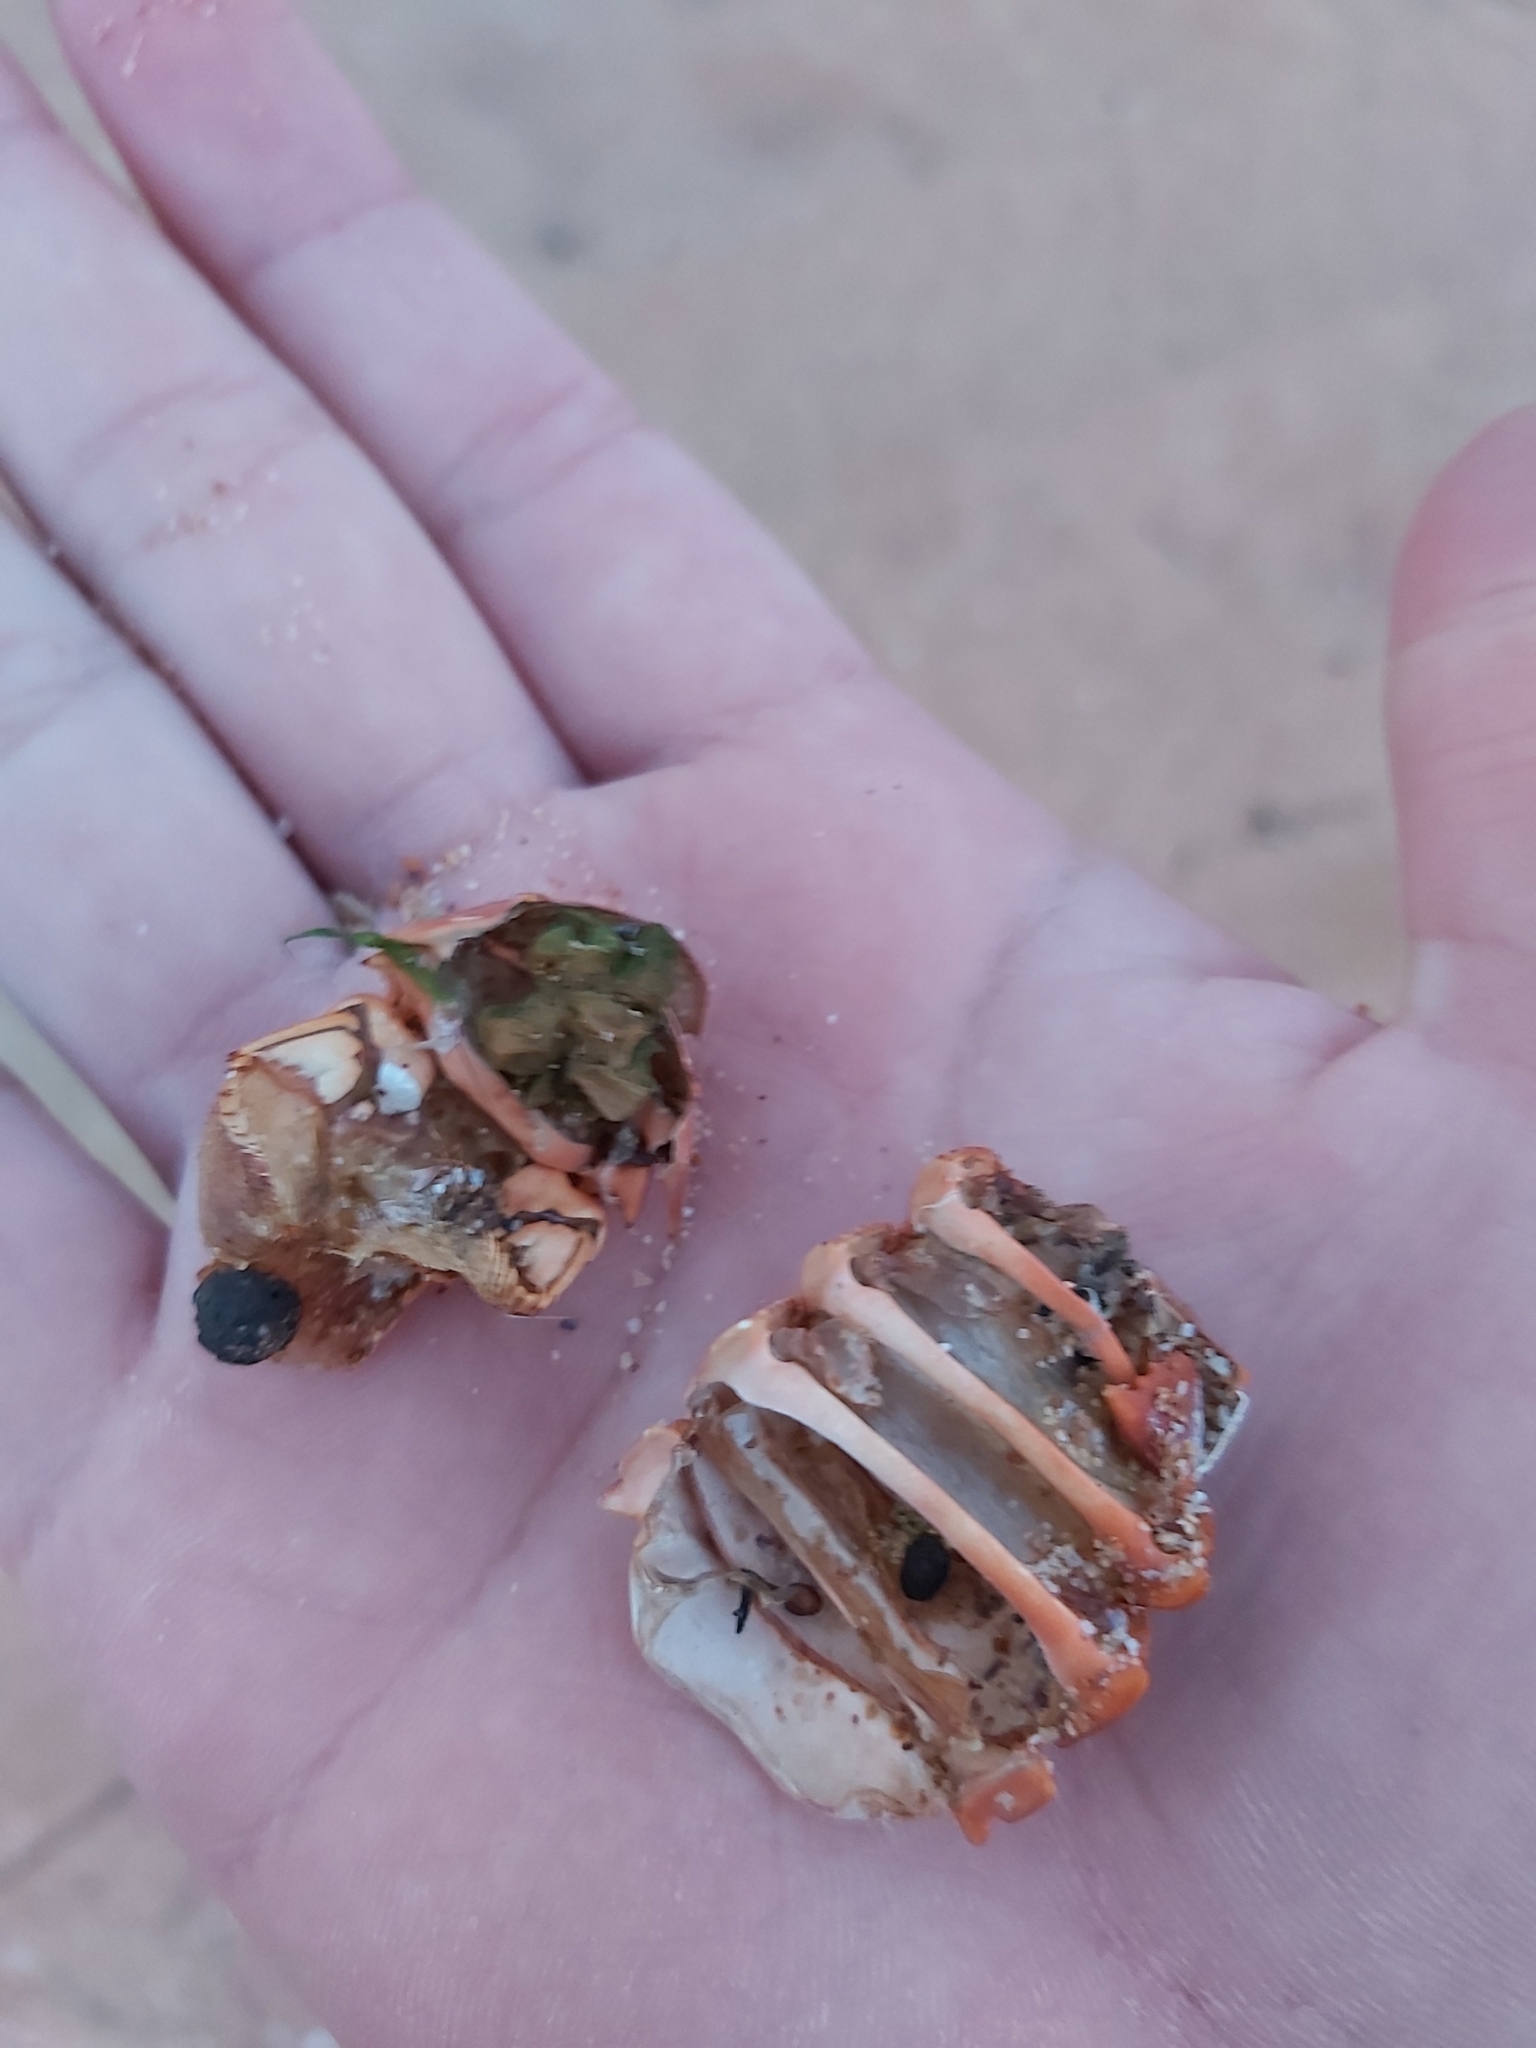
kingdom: Animalia
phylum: Arthropoda
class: Malacostraca
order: Decapoda
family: Palinuridae
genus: Sagmariasus
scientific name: Sagmariasus verreauxi
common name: Green rock lobster
